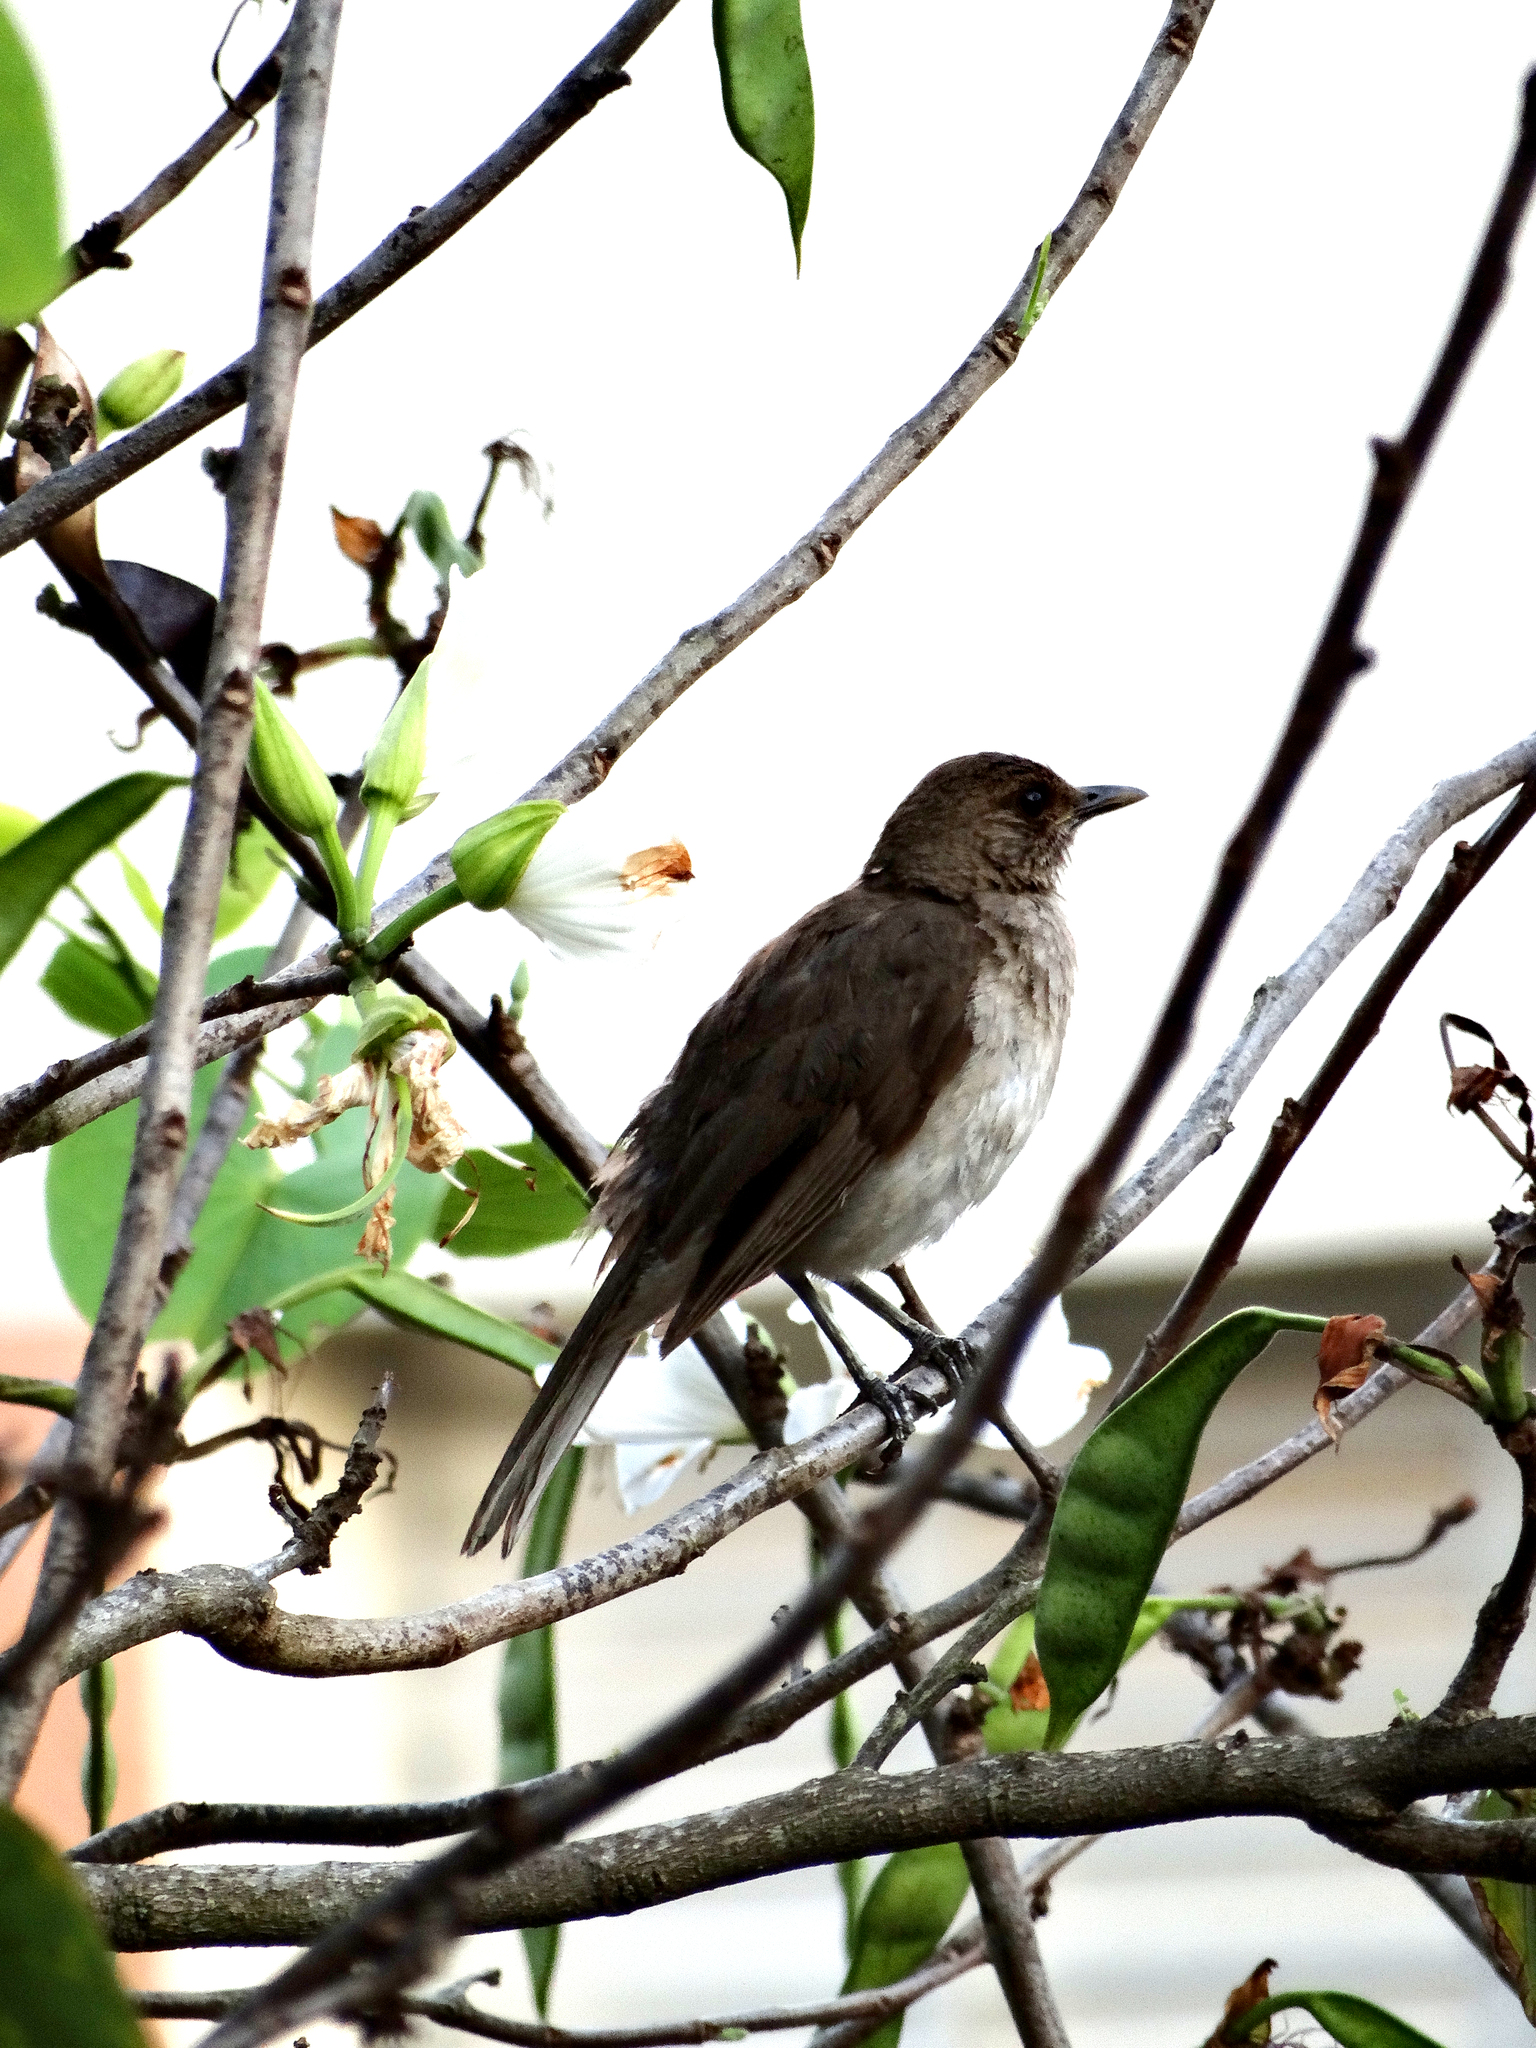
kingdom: Animalia
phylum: Chordata
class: Aves
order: Passeriformes
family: Turdidae
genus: Turdus
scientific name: Turdus amaurochalinus
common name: Creamy-bellied thrush
